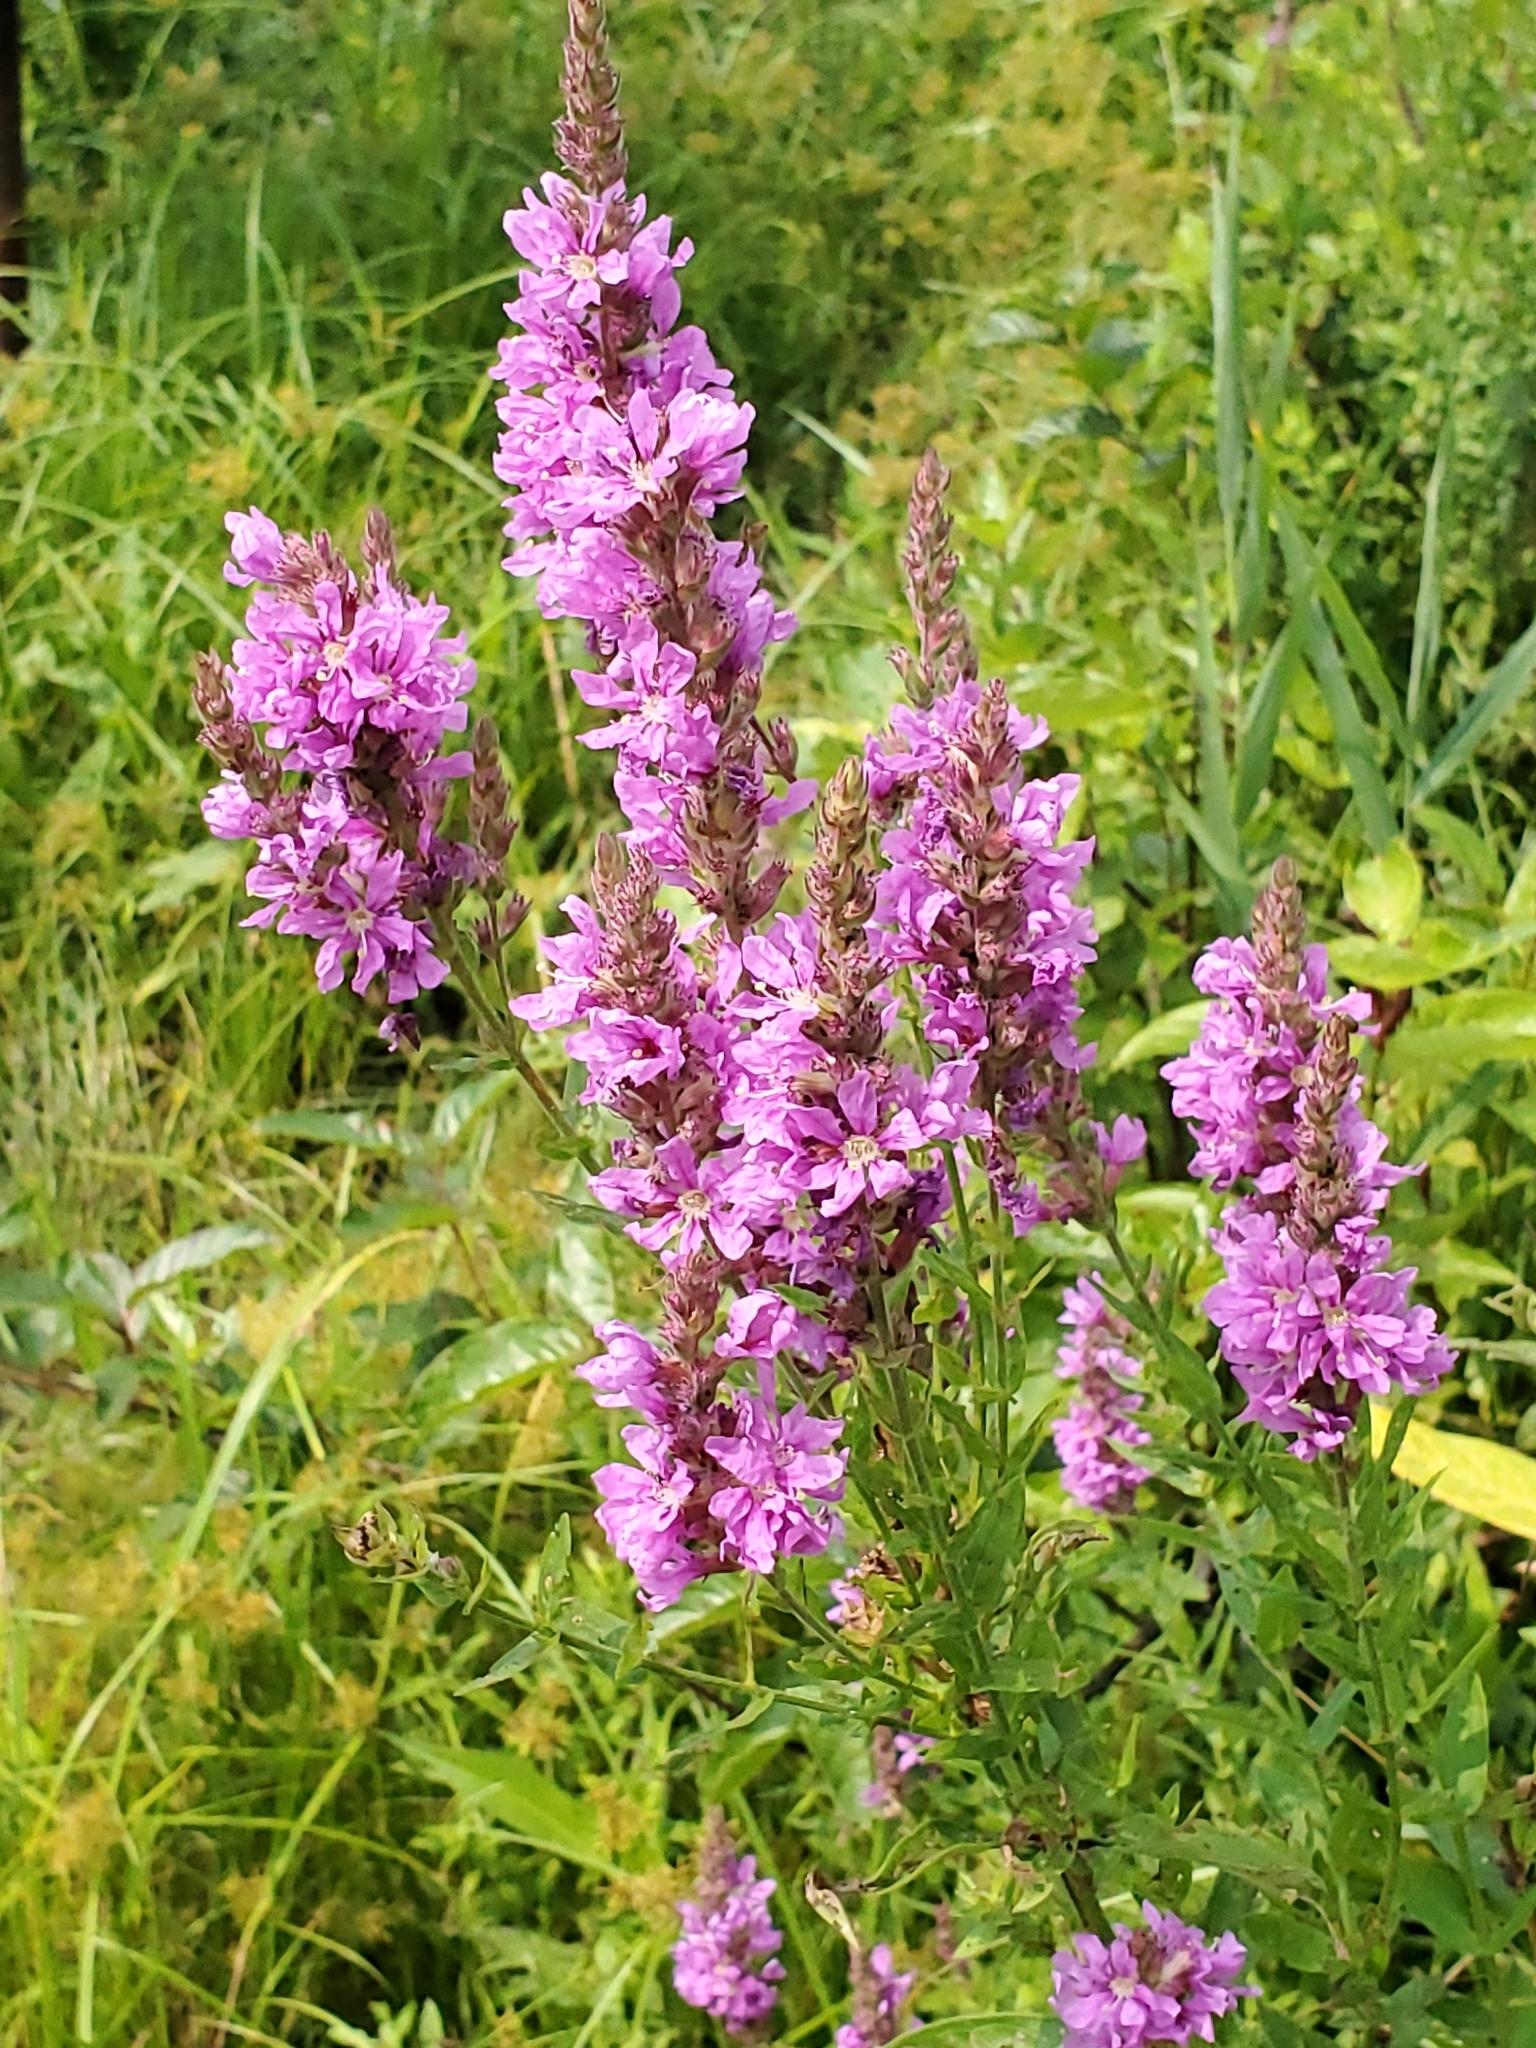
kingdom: Plantae
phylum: Tracheophyta
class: Magnoliopsida
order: Myrtales
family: Lythraceae
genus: Lythrum
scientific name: Lythrum salicaria
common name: Purple loosestrife
